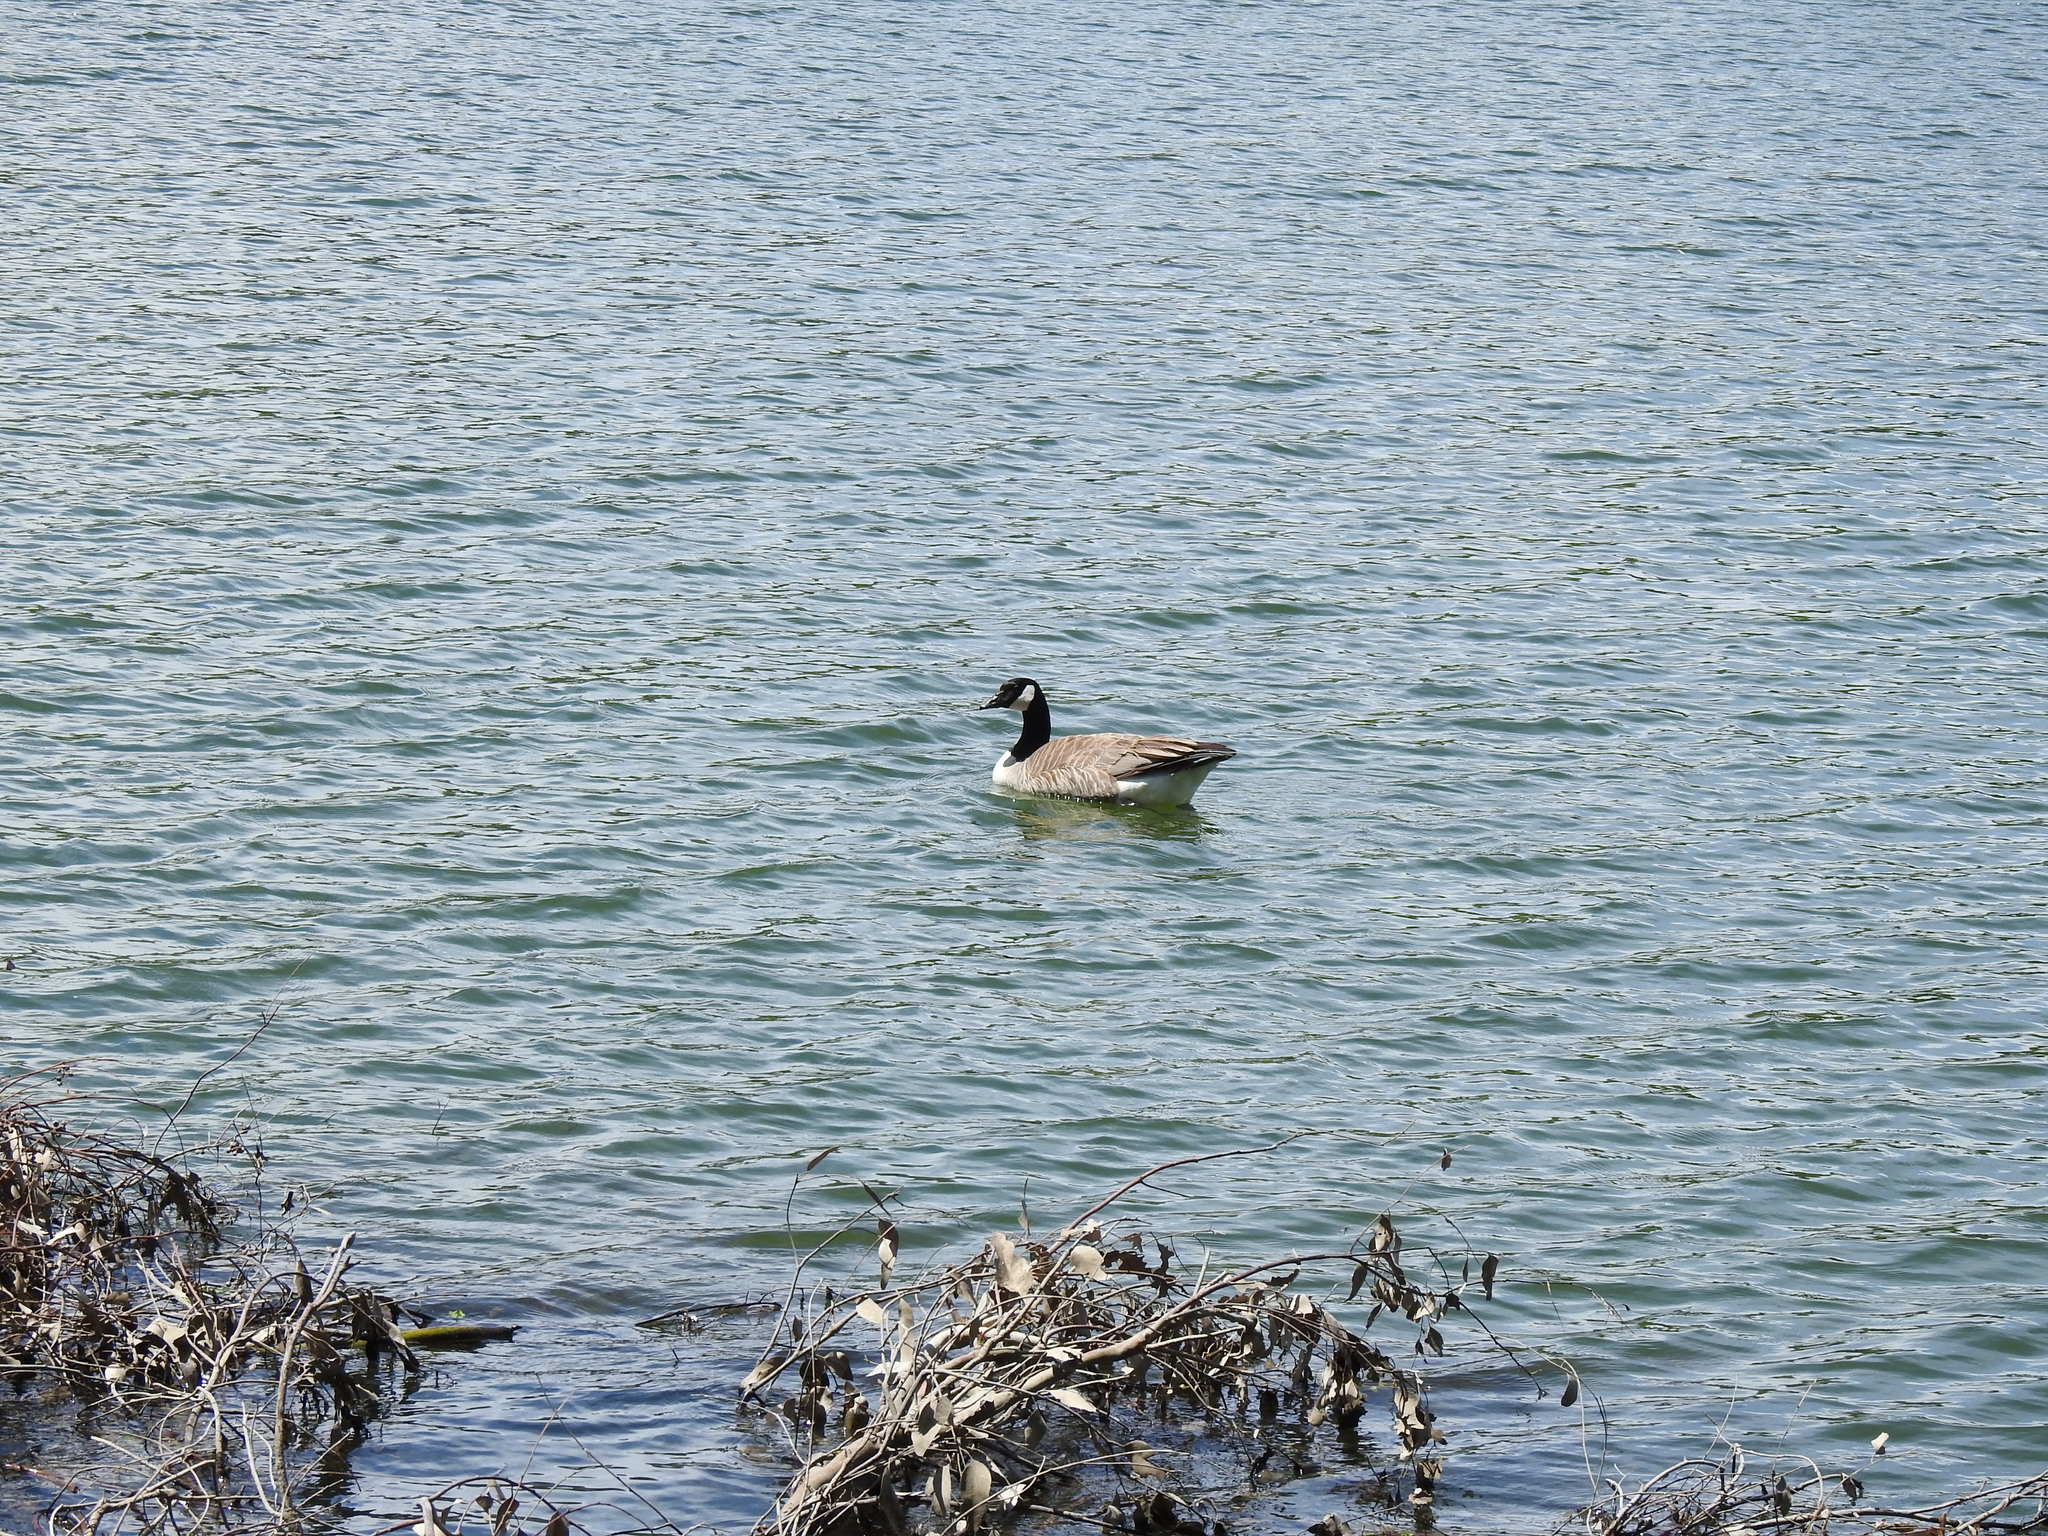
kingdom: Animalia
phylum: Chordata
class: Aves
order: Anseriformes
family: Anatidae
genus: Branta
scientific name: Branta canadensis
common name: Canada goose
